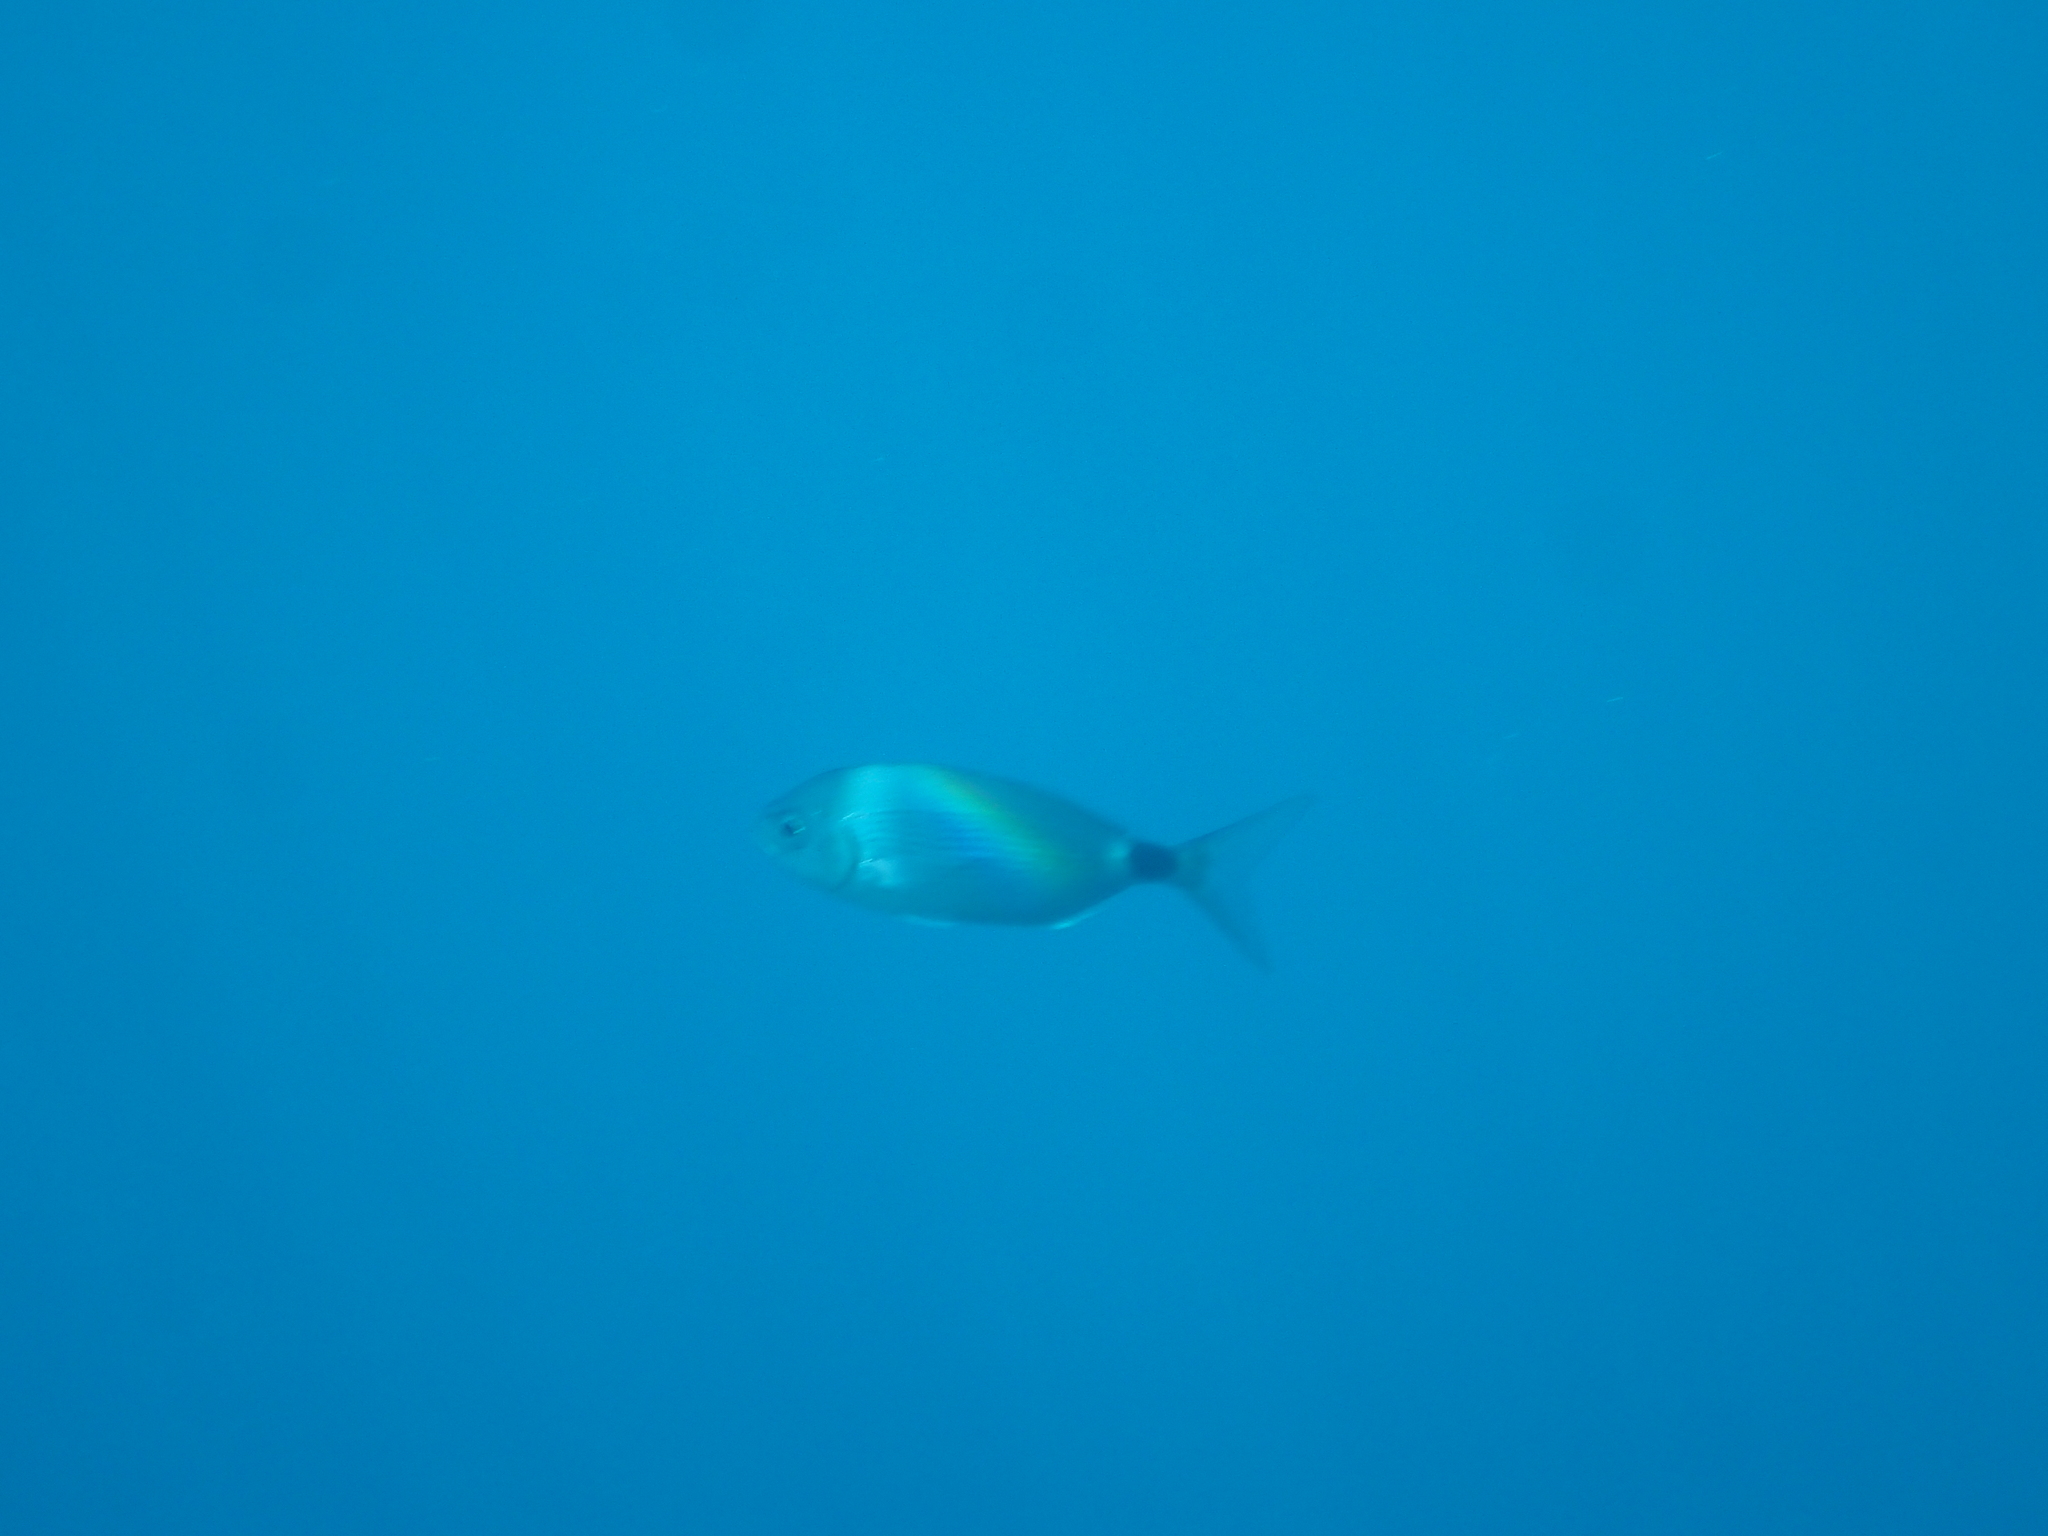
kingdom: Animalia
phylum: Chordata
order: Perciformes
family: Sparidae
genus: Oblada
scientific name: Oblada melanura
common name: Saddled seabream
